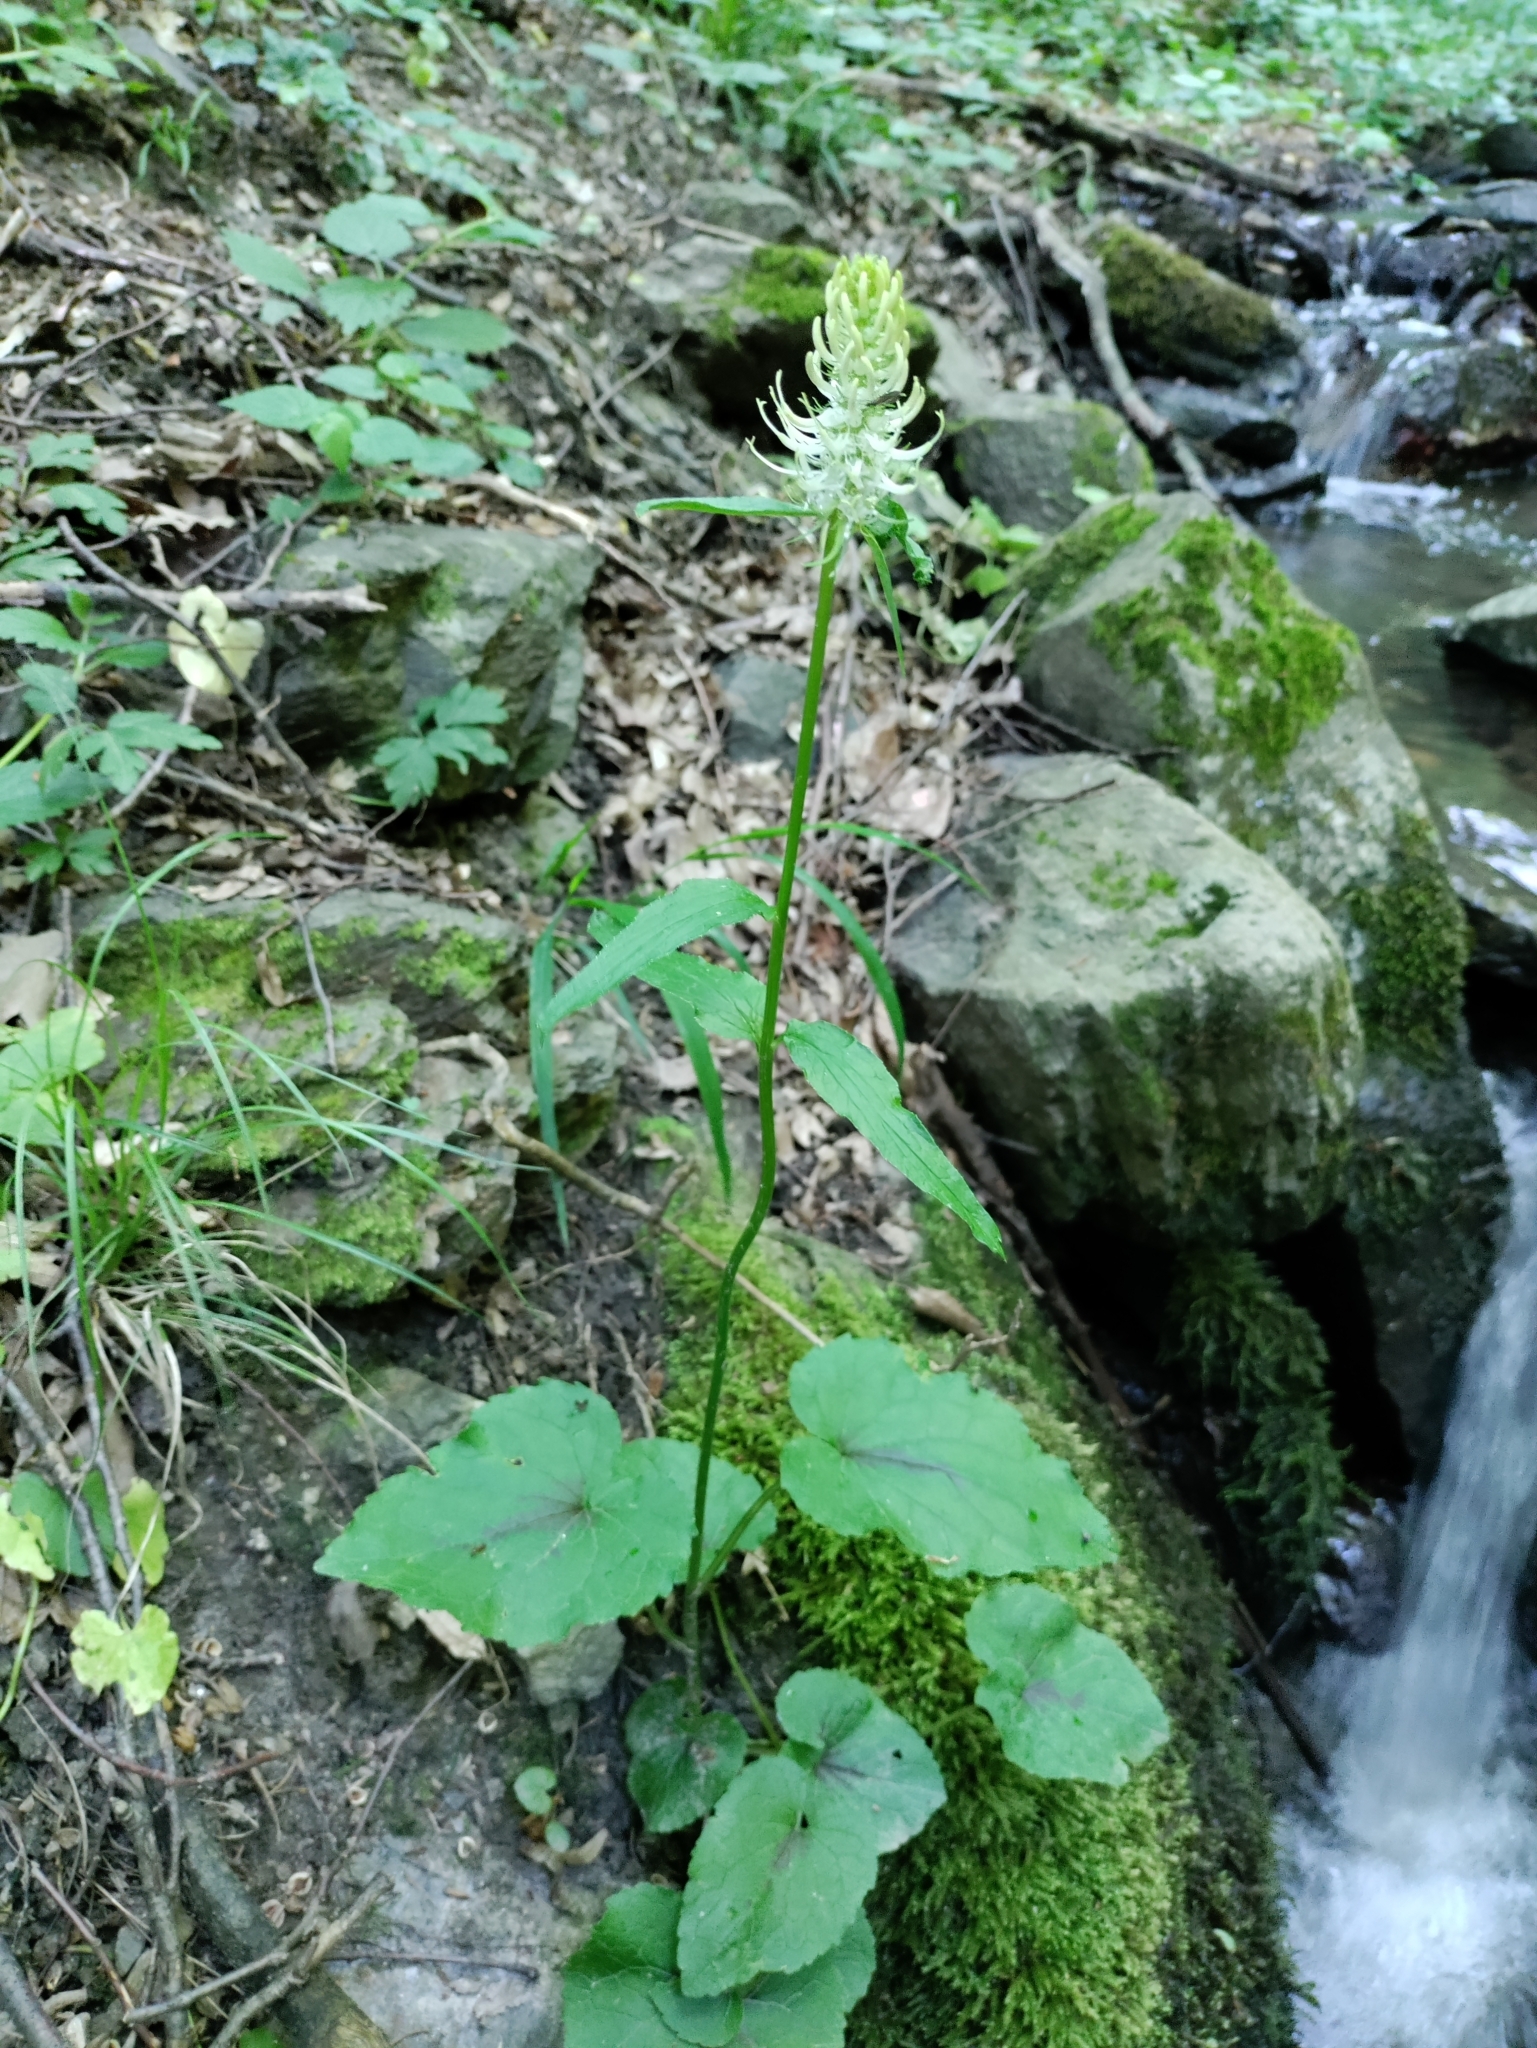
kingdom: Plantae
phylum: Tracheophyta
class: Magnoliopsida
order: Asterales
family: Campanulaceae
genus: Phyteuma
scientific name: Phyteuma spicatum
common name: Spiked rampion
